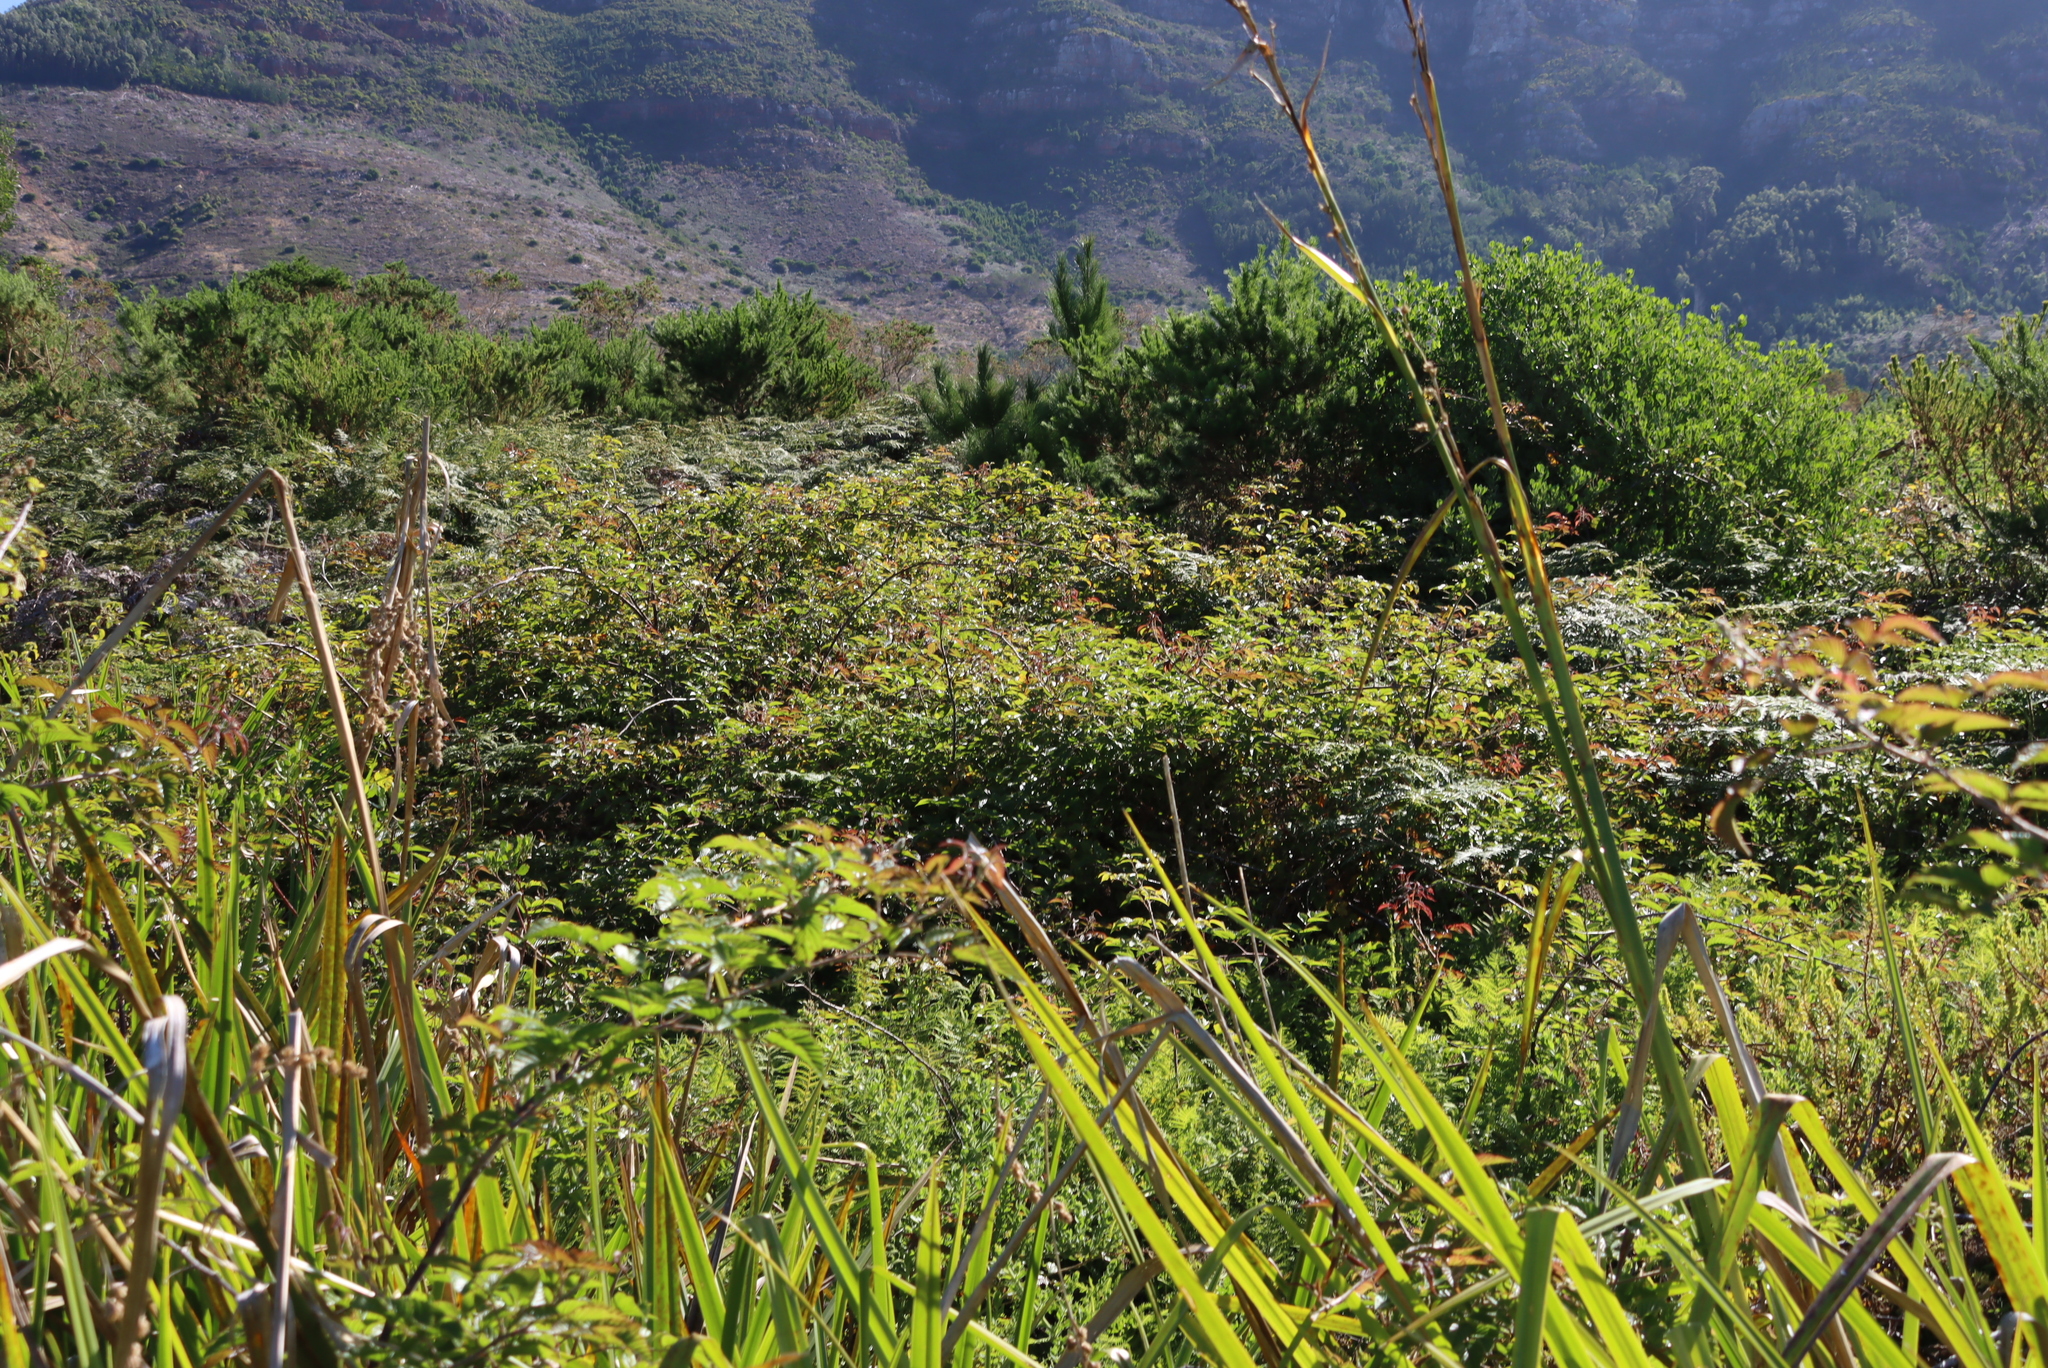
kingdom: Plantae
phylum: Tracheophyta
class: Magnoliopsida
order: Caryophyllales
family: Phytolaccaceae
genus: Phytolacca
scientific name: Phytolacca icosandra
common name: Button pokeweed
